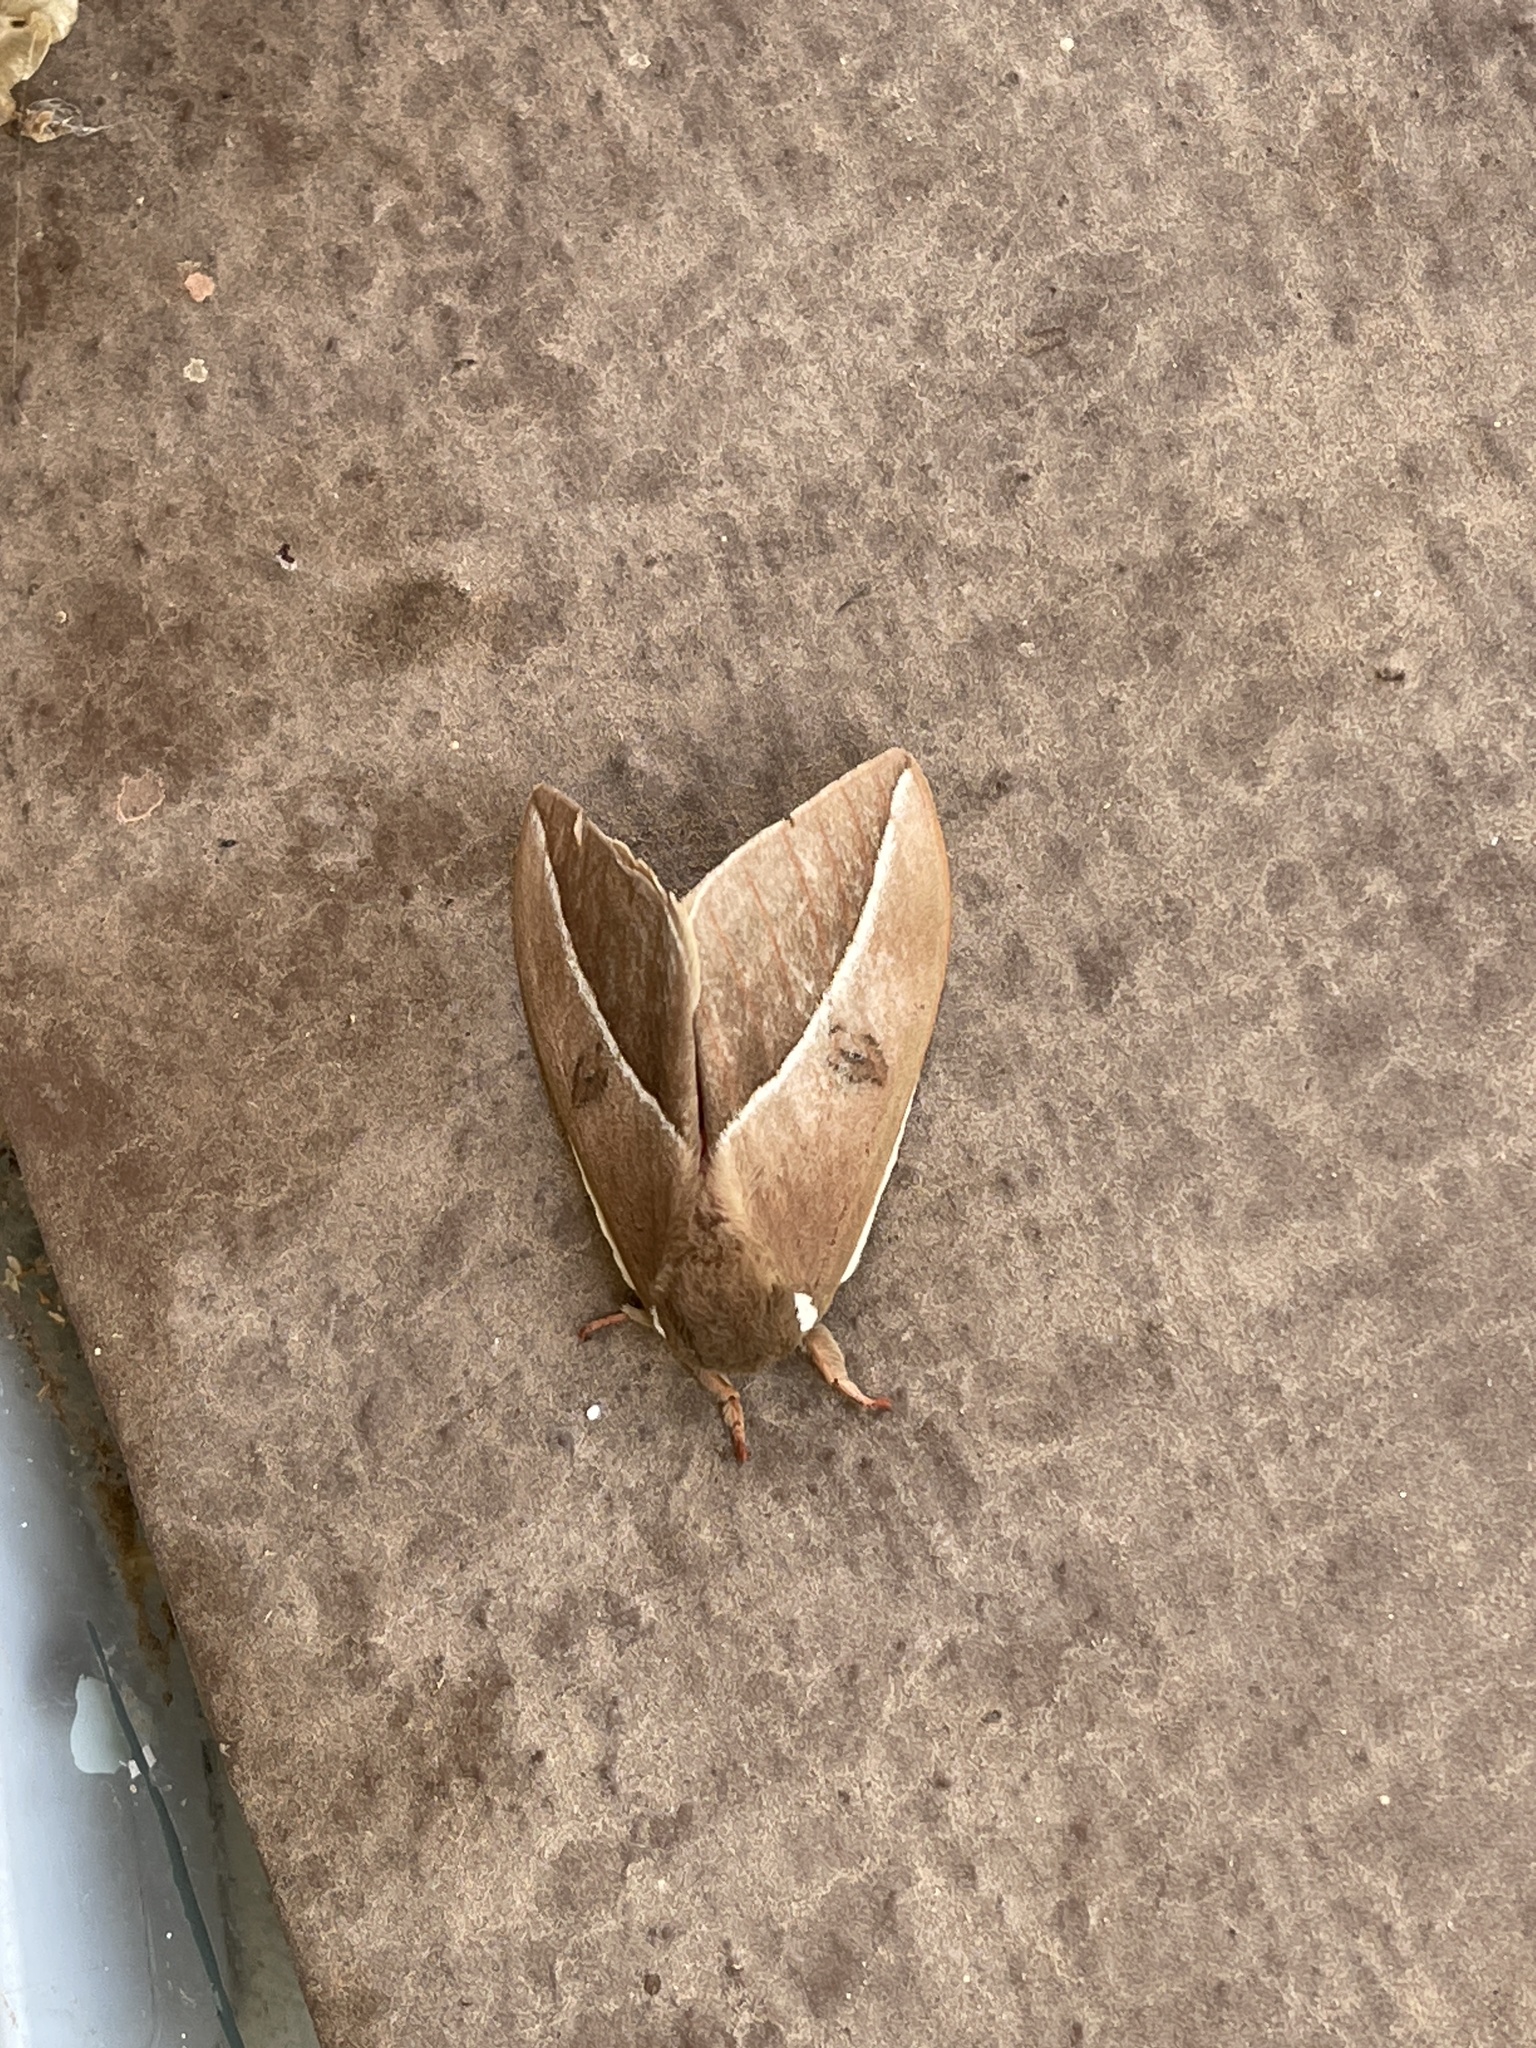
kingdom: Animalia
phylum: Arthropoda
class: Insecta
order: Lepidoptera
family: Saturniidae
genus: Automeris
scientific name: Automeris zephyria
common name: Zephyr eyed silkmoth
